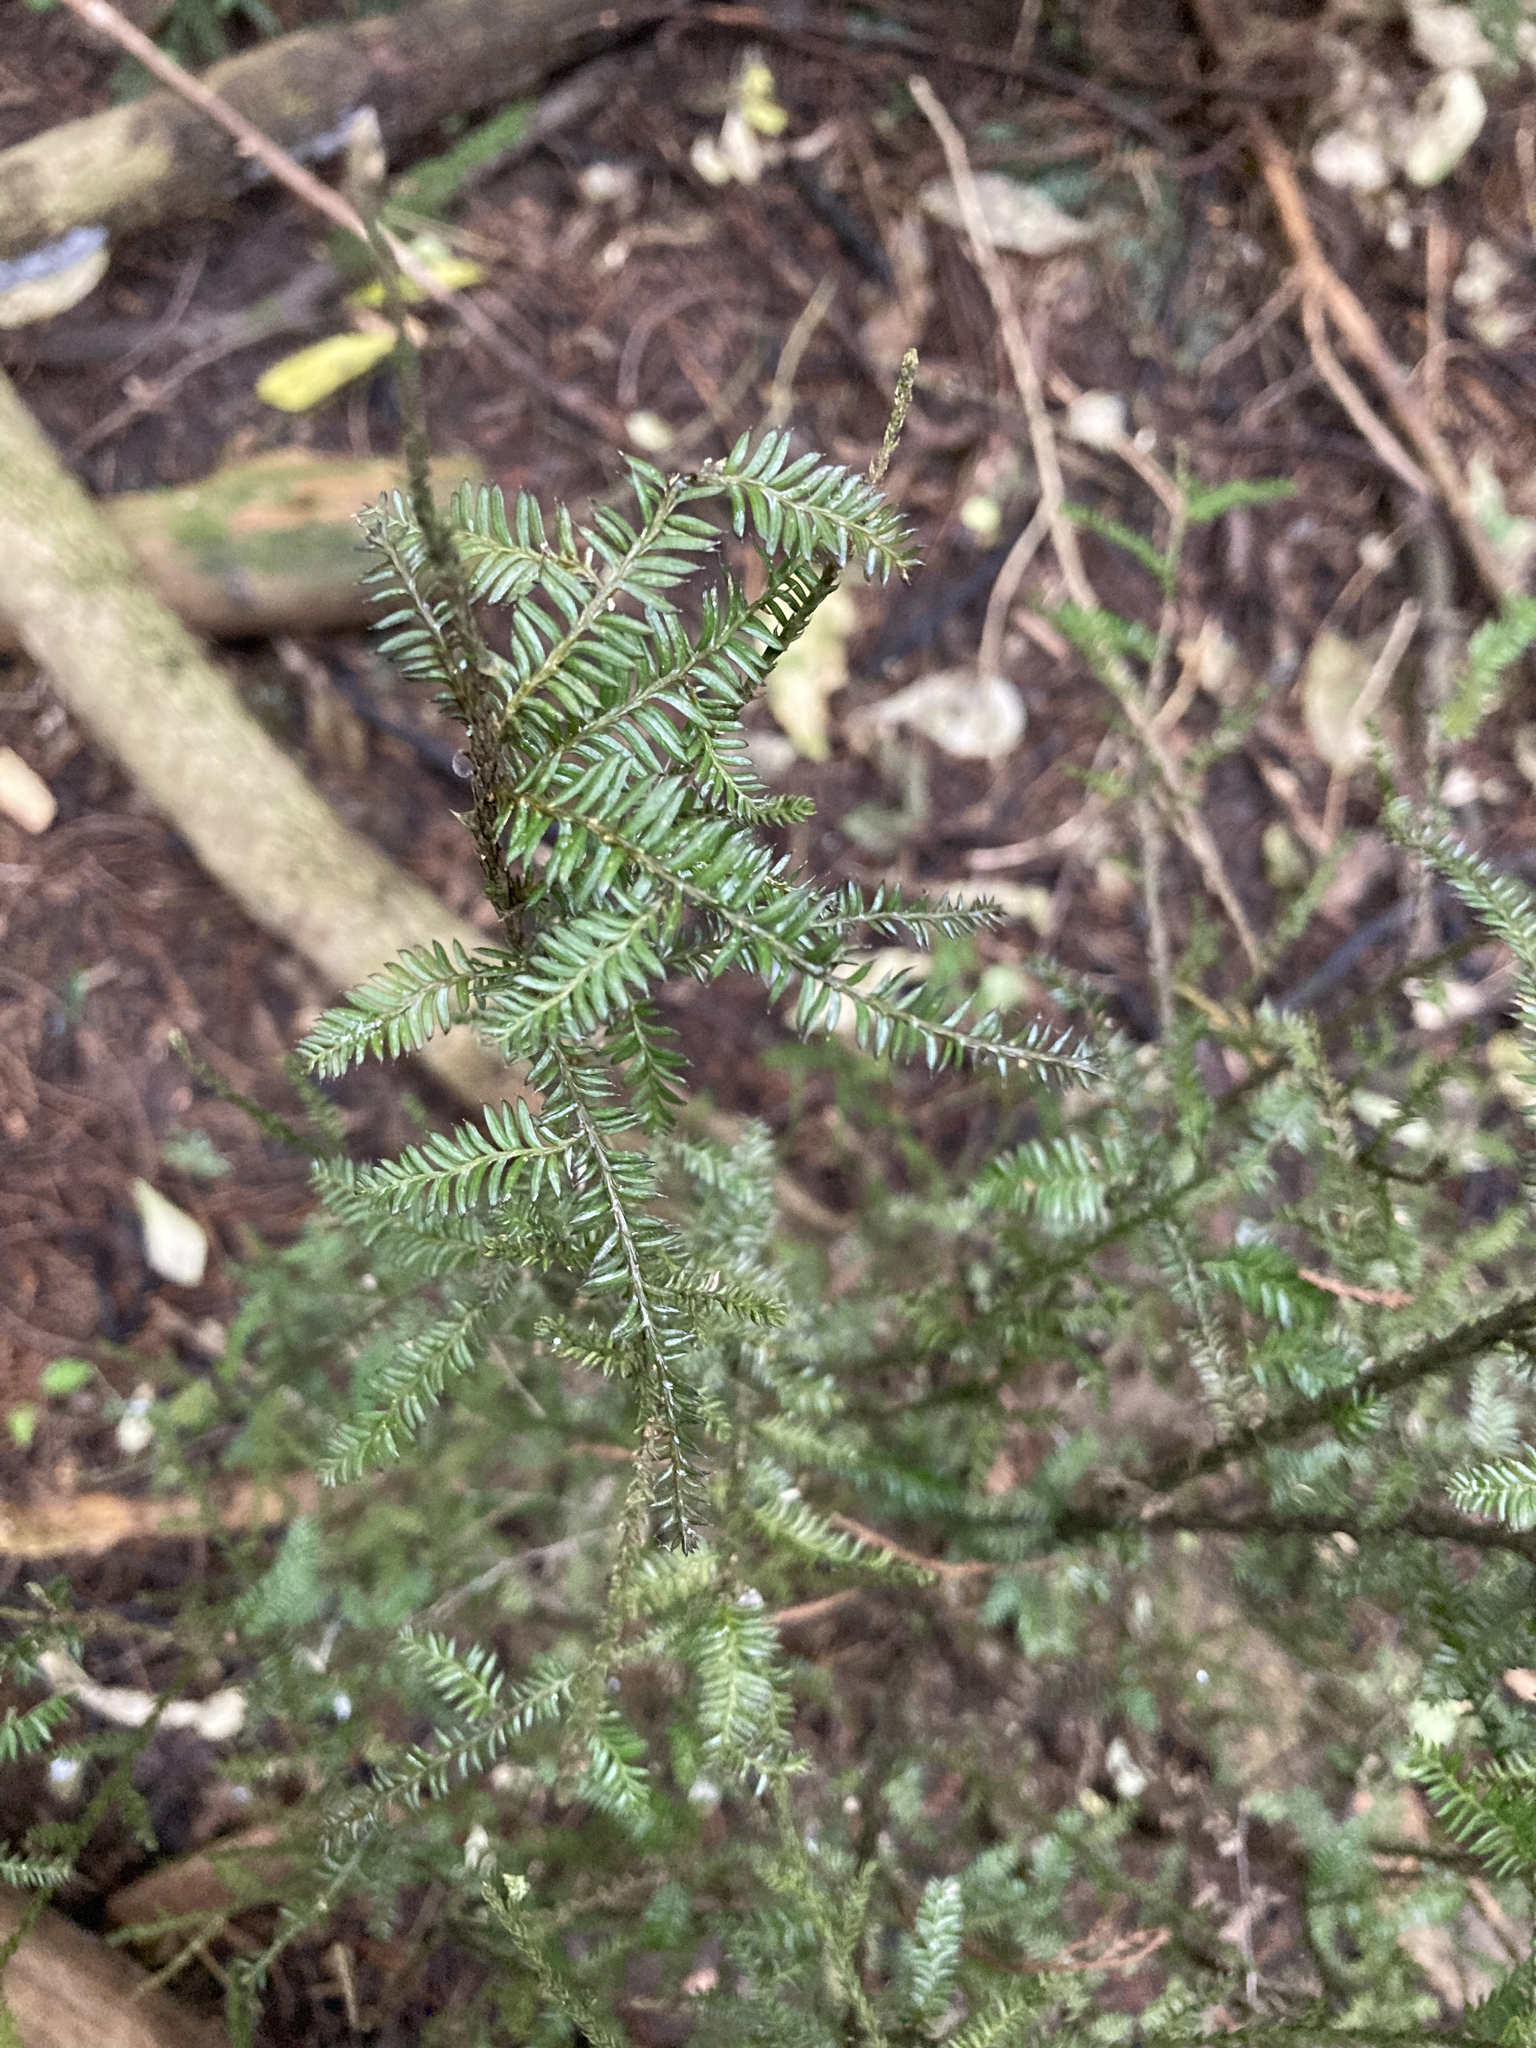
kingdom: Plantae
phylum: Tracheophyta
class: Pinopsida
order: Pinales
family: Podocarpaceae
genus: Dacrycarpus
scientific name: Dacrycarpus dacrydioides
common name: White pine
